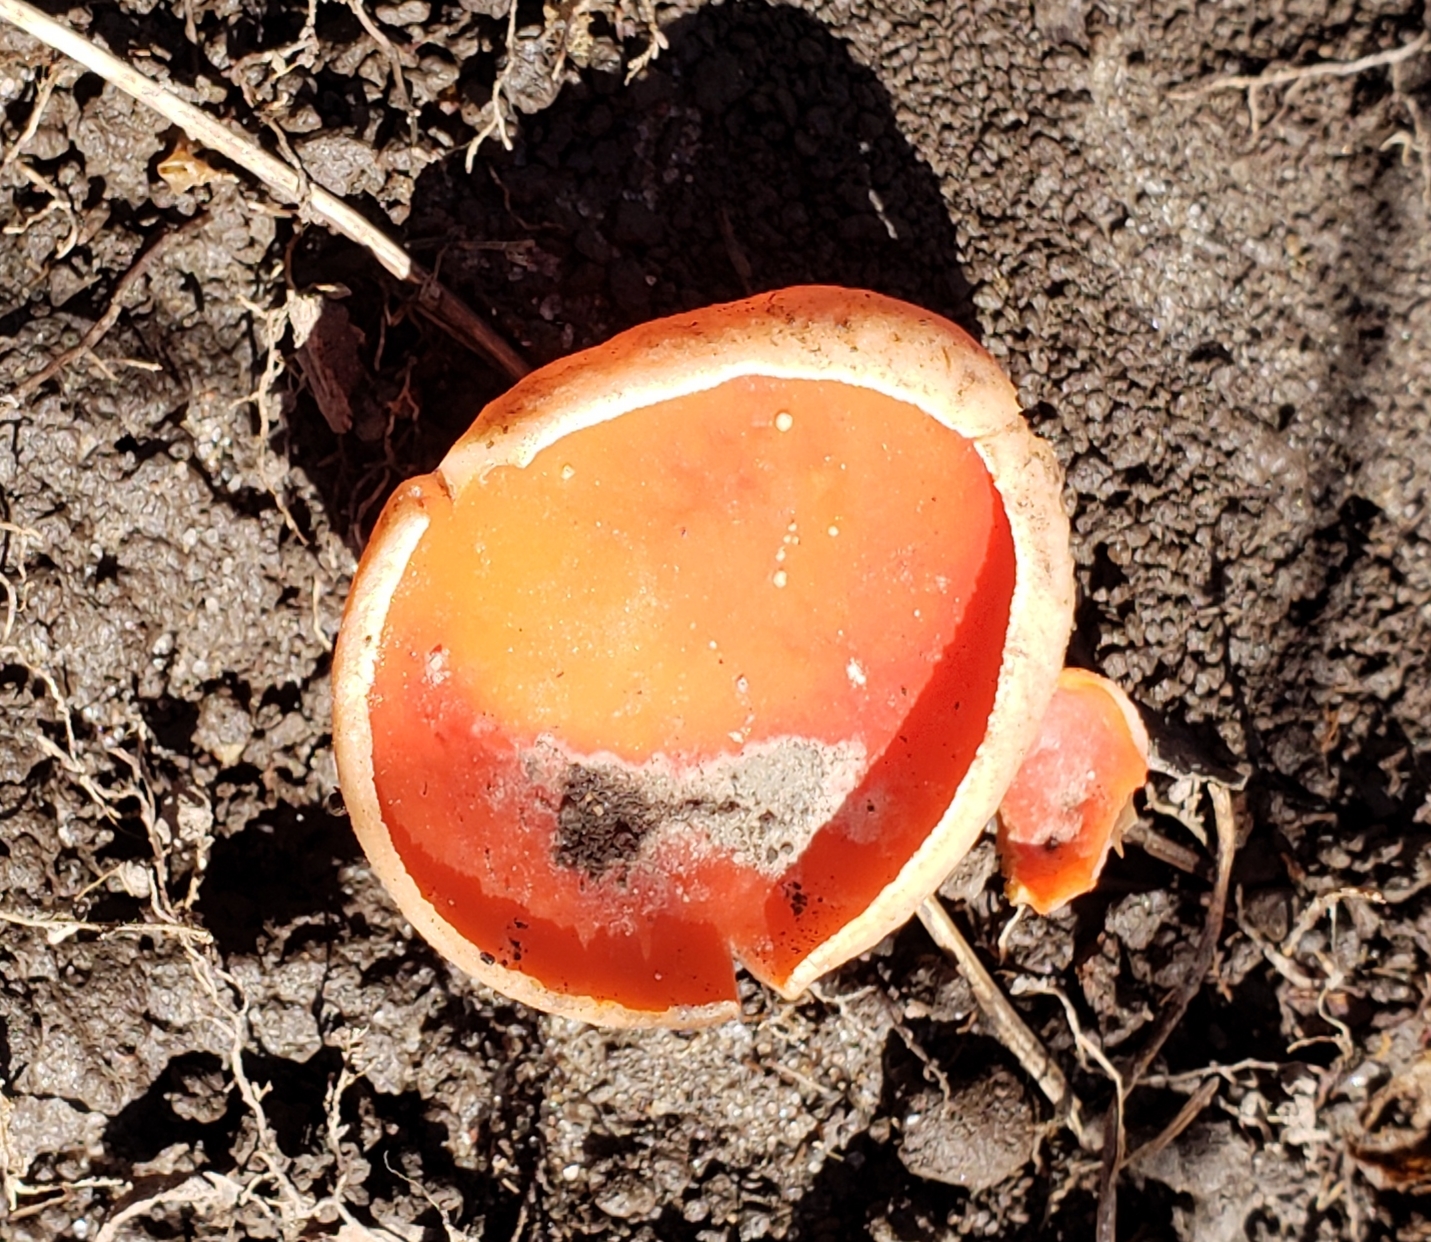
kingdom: Fungi
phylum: Ascomycota
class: Pezizomycetes
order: Pezizales
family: Sarcoscyphaceae
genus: Sarcoscypha
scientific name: Sarcoscypha
